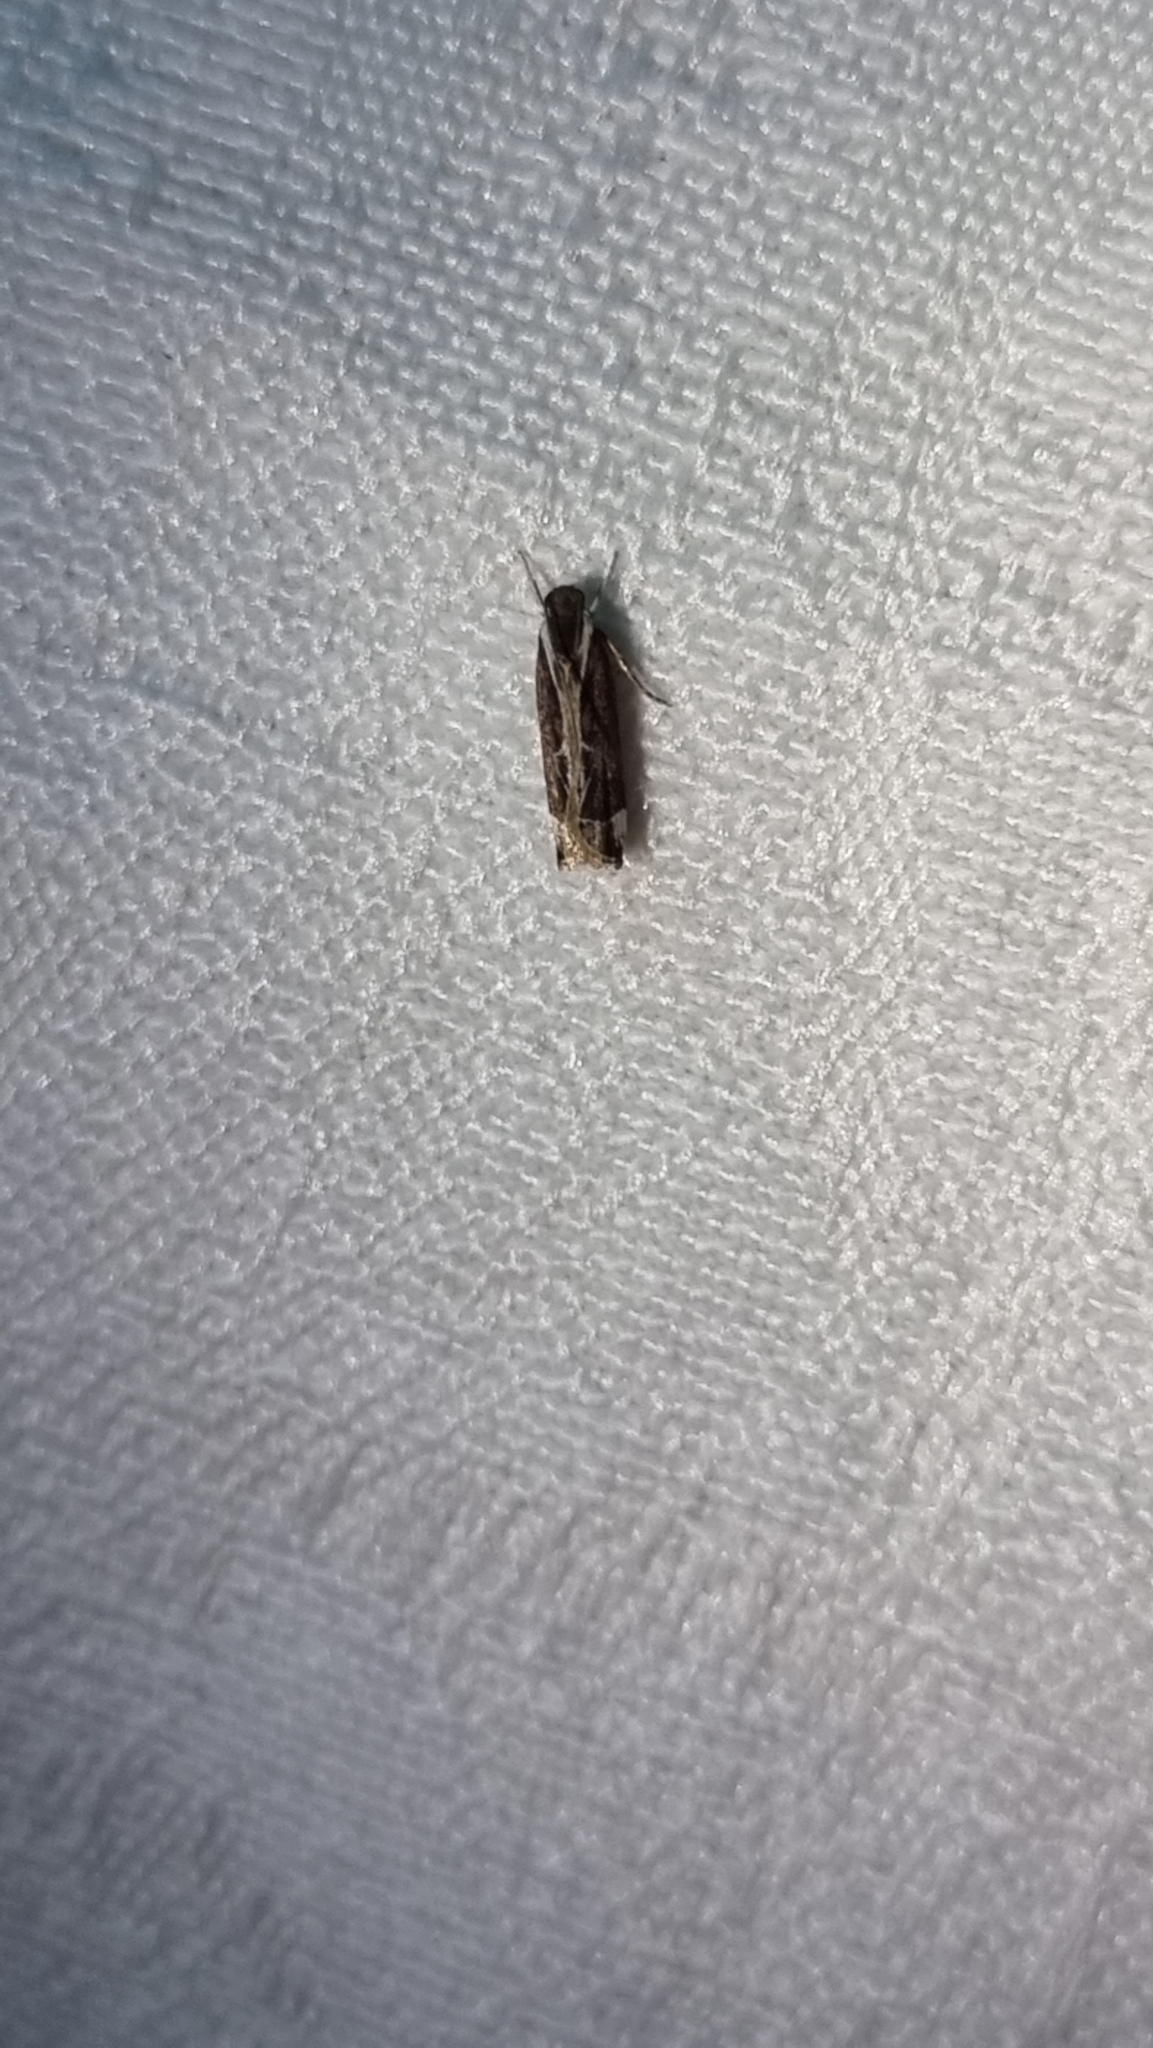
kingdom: Animalia
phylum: Arthropoda
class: Insecta
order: Lepidoptera
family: Gelechiidae
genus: Chaliniastis
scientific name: Chaliniastis astrapaea
